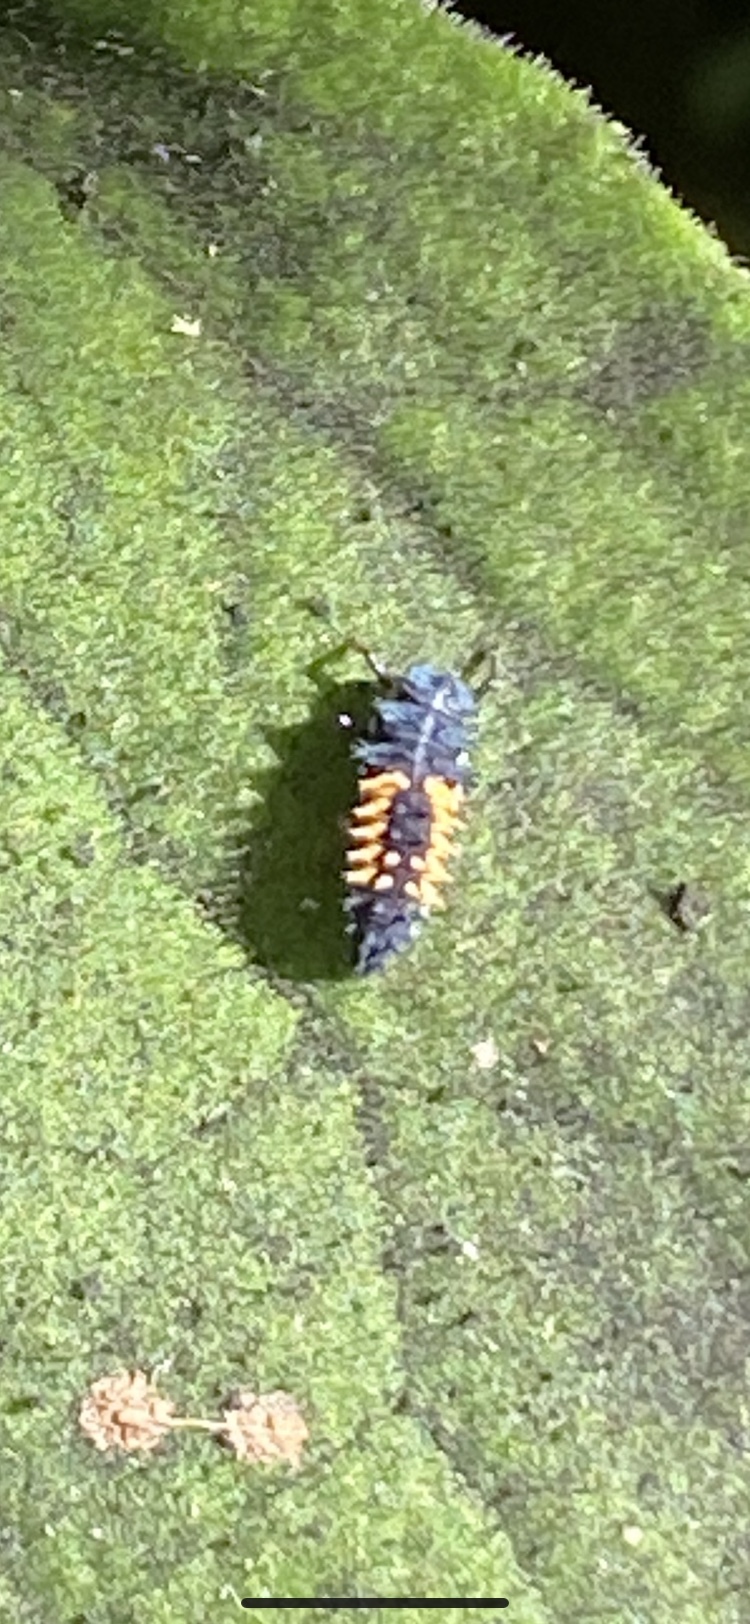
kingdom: Animalia
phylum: Arthropoda
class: Insecta
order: Coleoptera
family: Coccinellidae
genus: Harmonia
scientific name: Harmonia axyridis
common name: Harlequin ladybird
